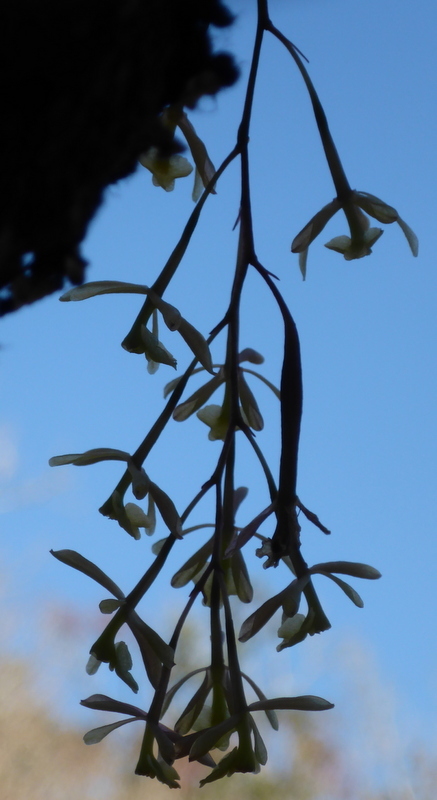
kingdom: Plantae
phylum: Tracheophyta
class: Liliopsida
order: Asparagales
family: Orchidaceae
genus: Epidendrum
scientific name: Epidendrum conopseum
